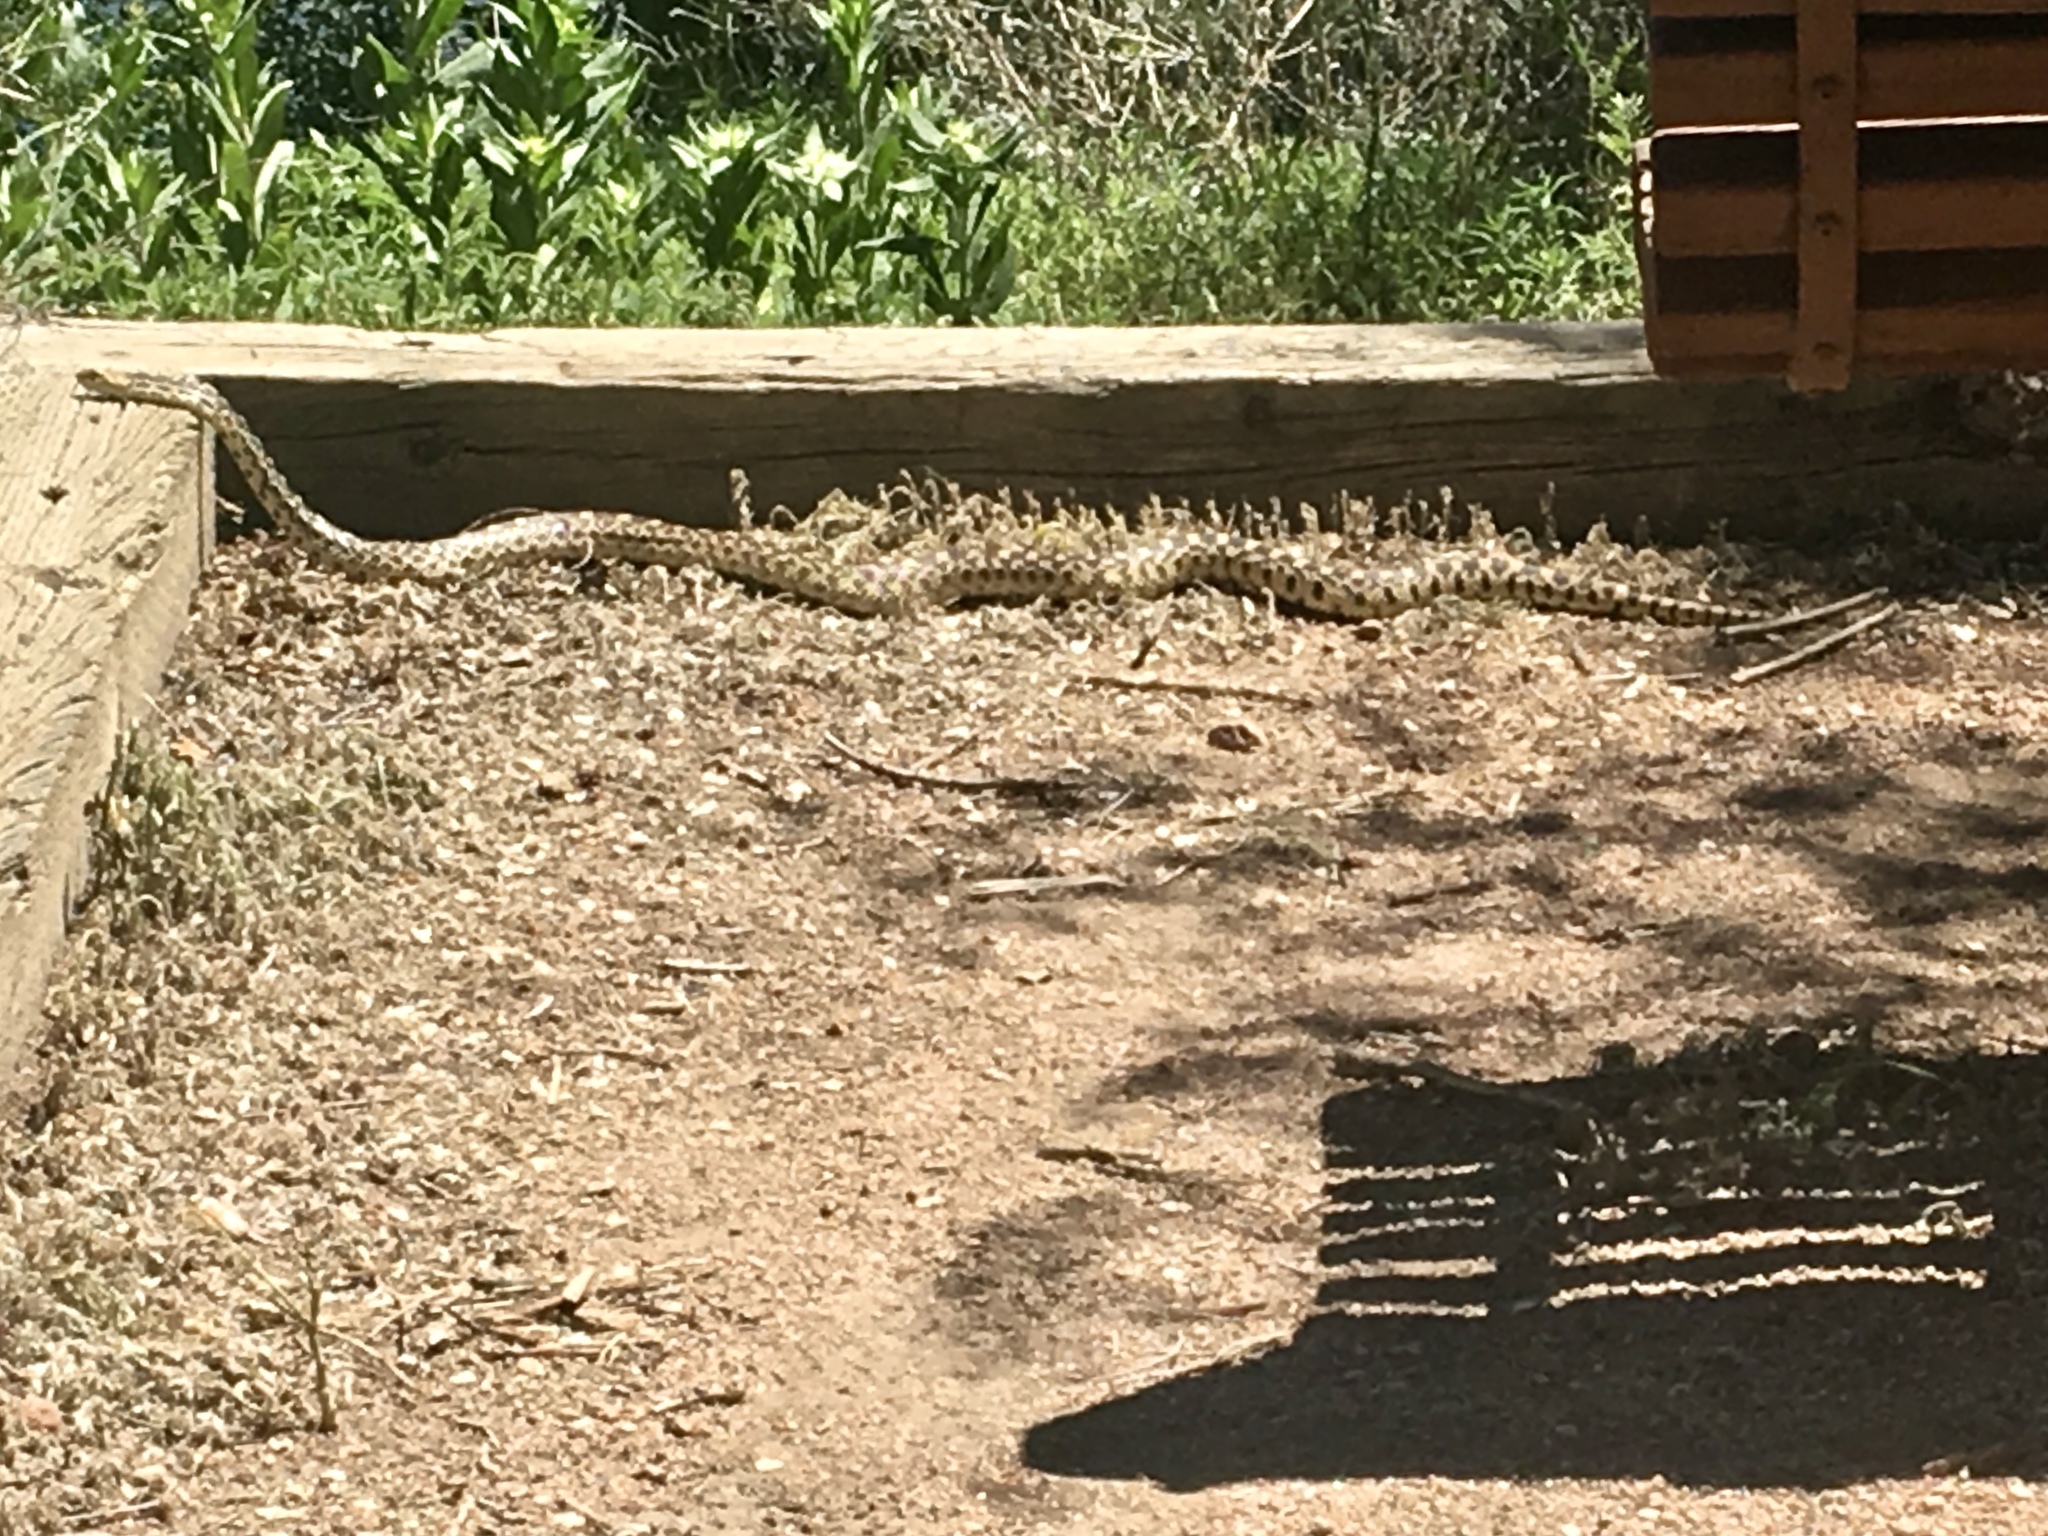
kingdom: Animalia
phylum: Chordata
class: Squamata
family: Colubridae
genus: Pituophis
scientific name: Pituophis catenifer
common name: Gopher snake
